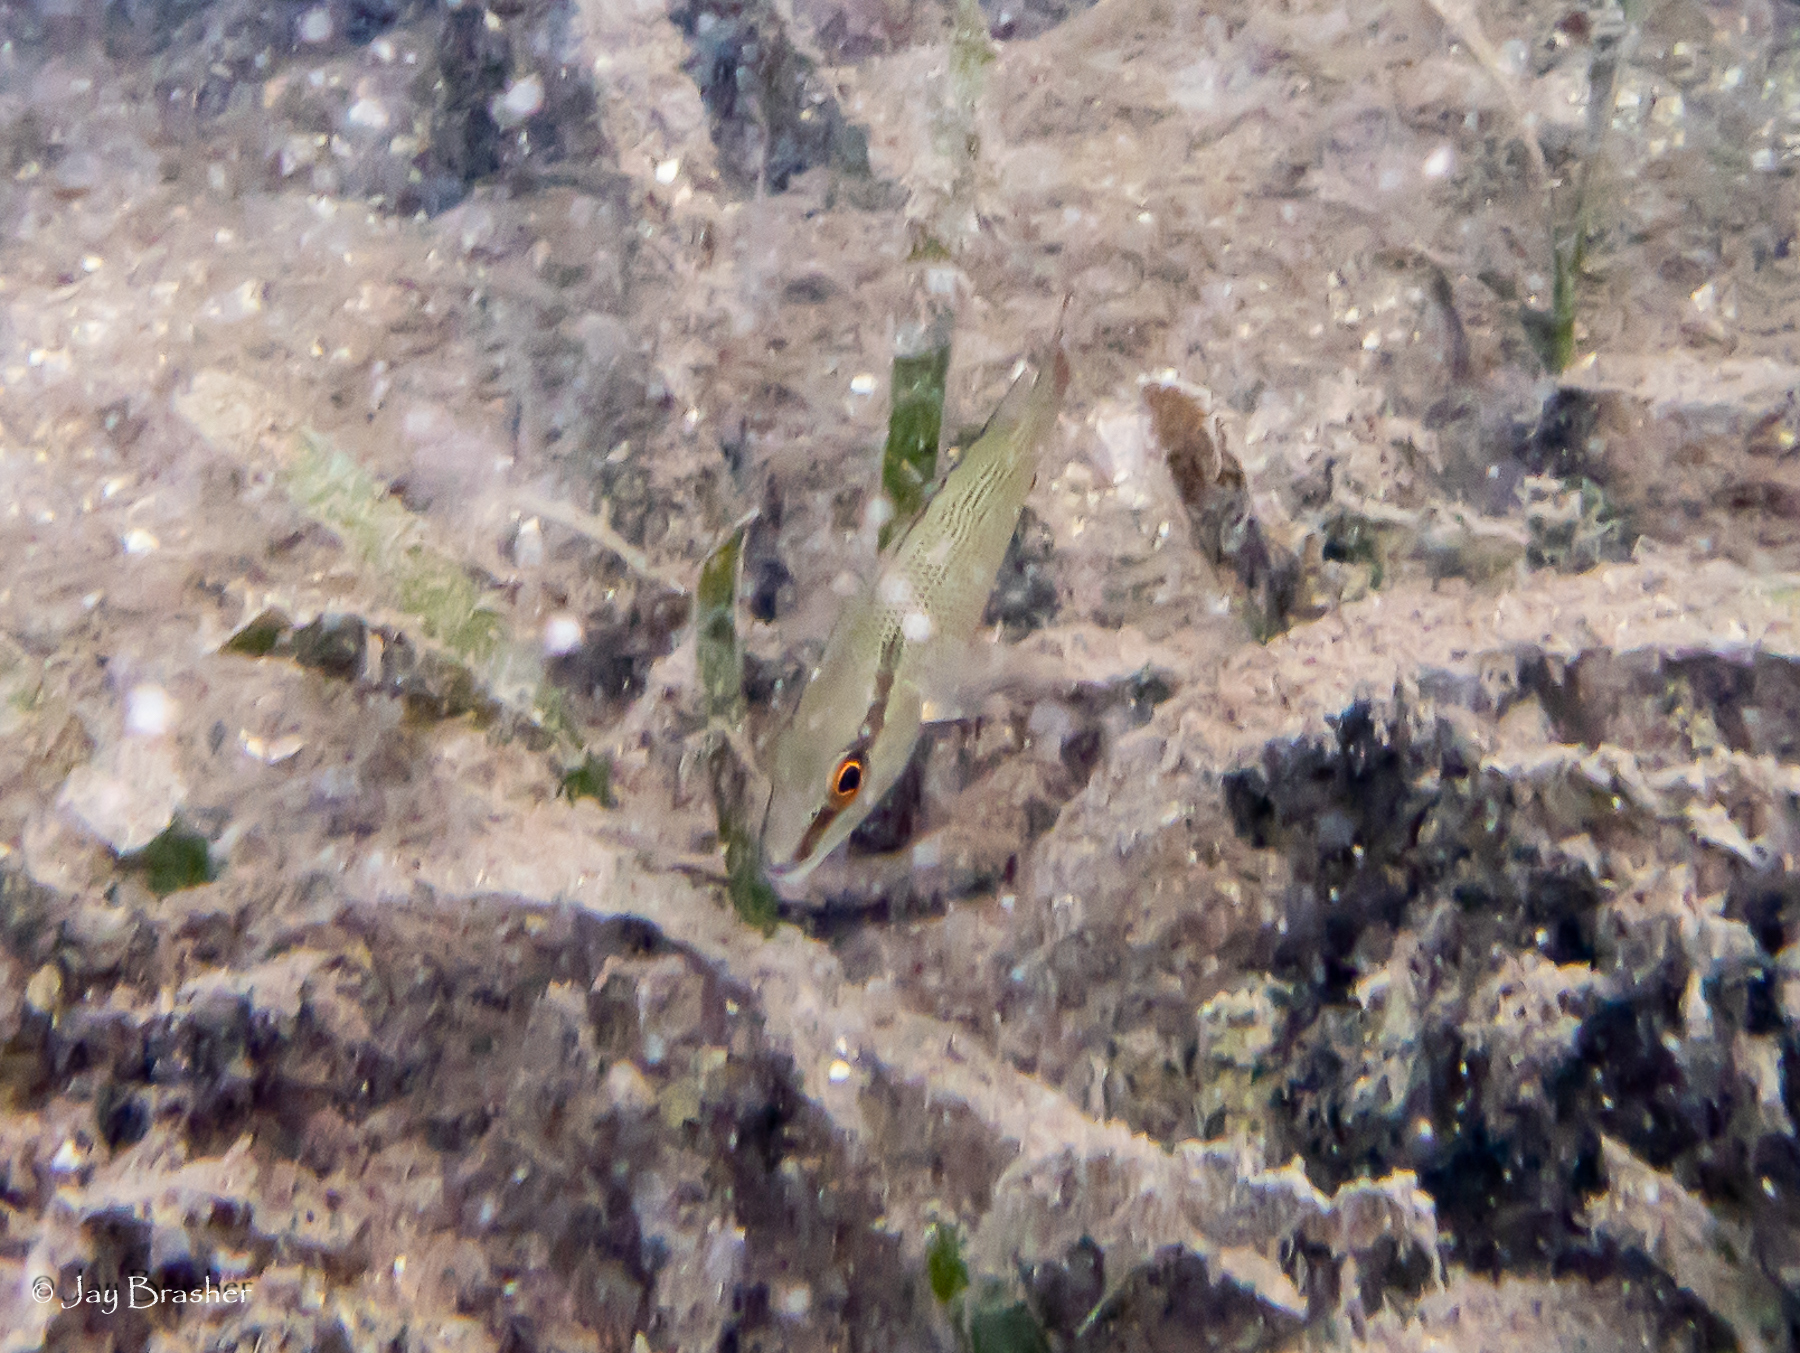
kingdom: Animalia
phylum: Chordata
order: Perciformes
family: Lutjanidae
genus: Lutjanus
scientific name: Lutjanus apodus
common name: Schoolmaster
